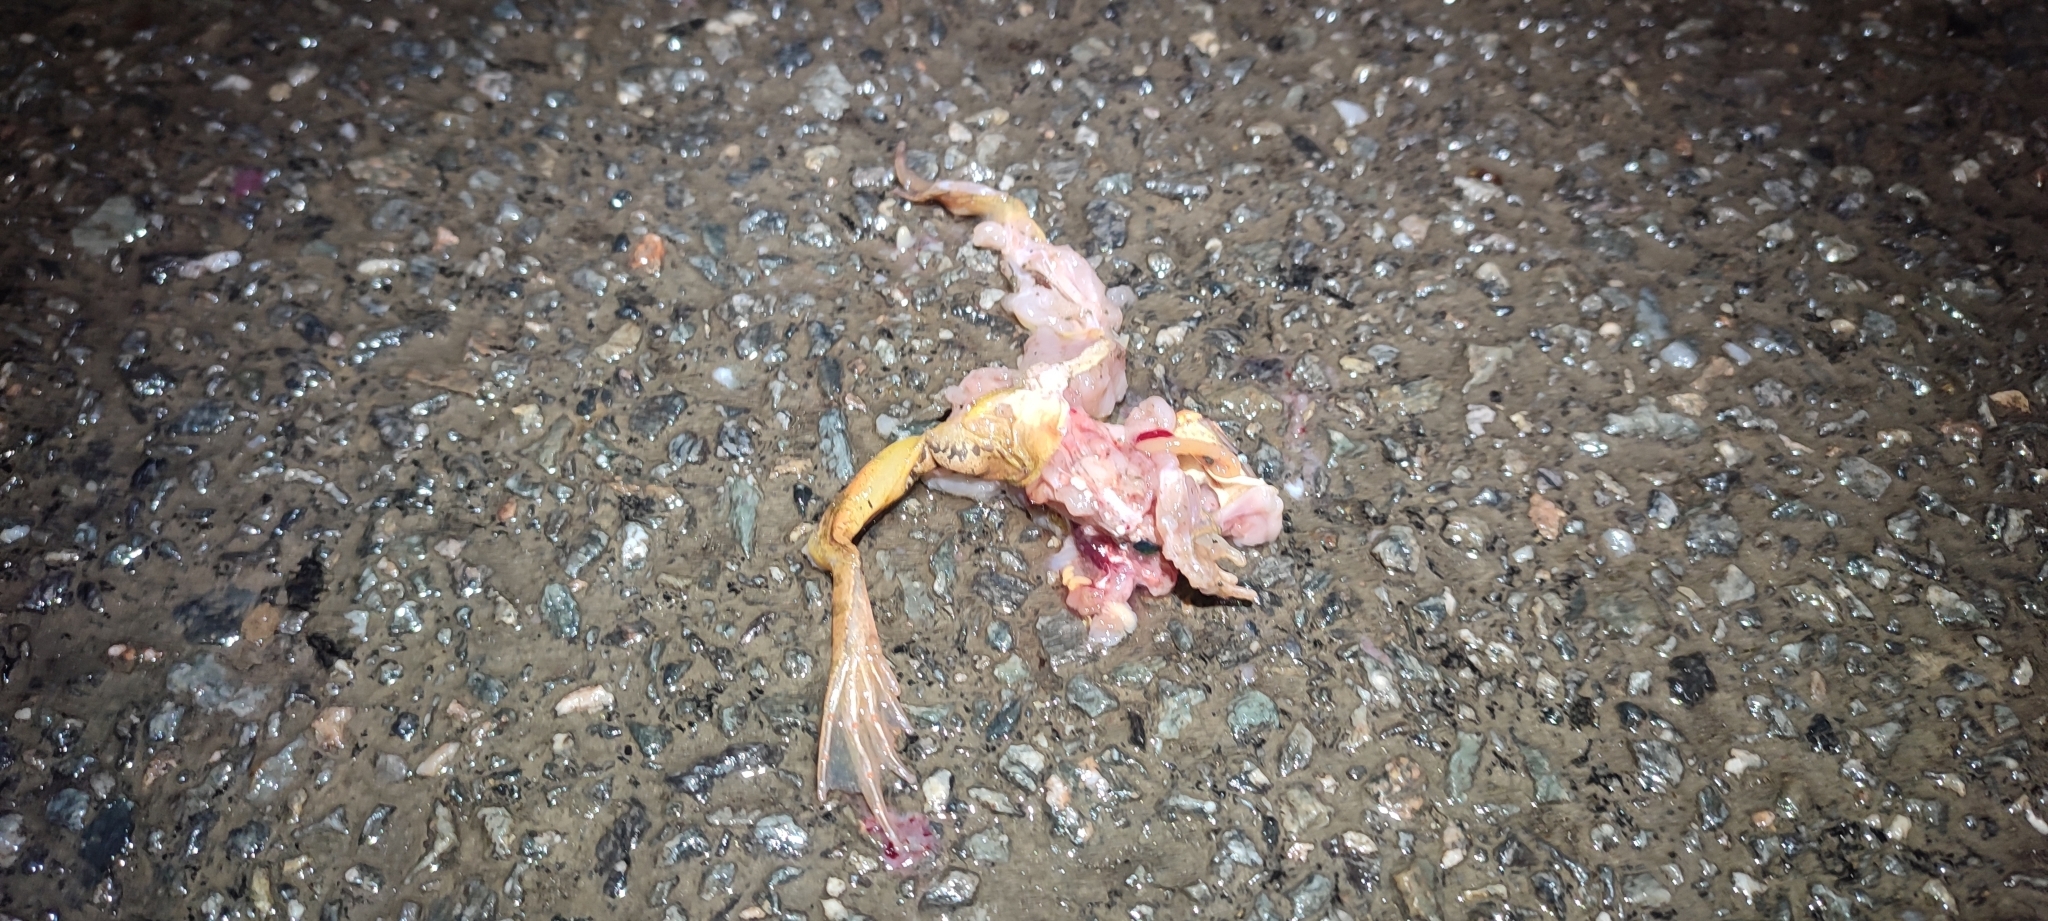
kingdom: Animalia
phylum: Chordata
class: Amphibia
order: Anura
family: Ranidae
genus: Rana
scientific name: Rana dalmatina
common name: Agile frog
